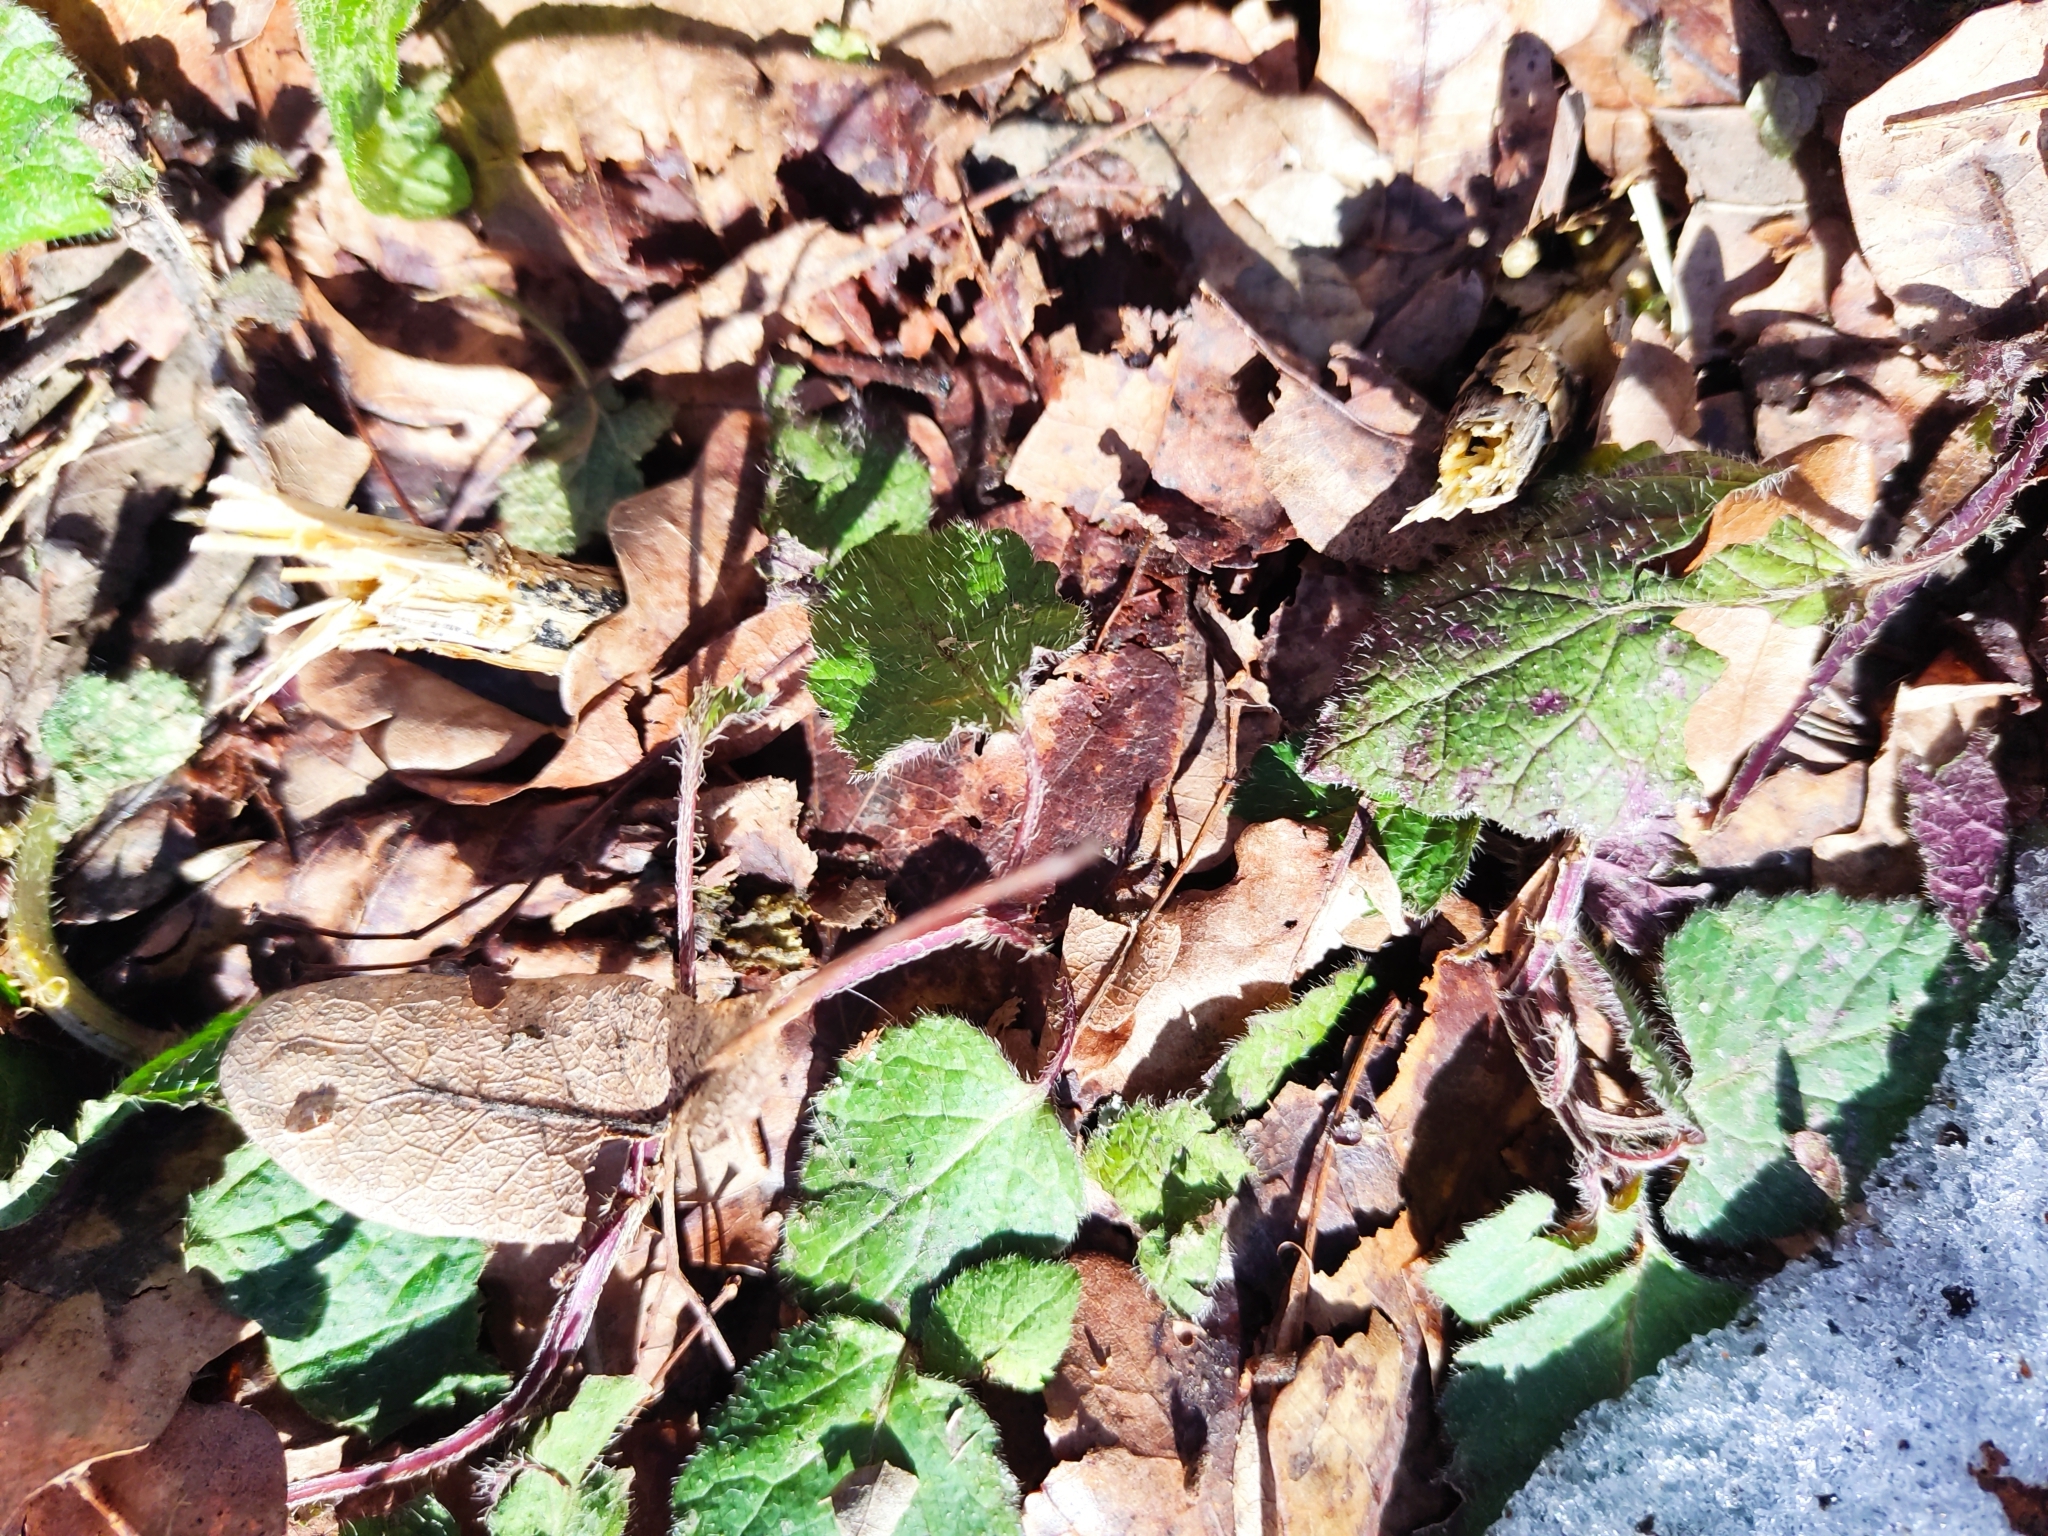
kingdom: Plantae
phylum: Tracheophyta
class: Magnoliopsida
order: Lamiales
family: Lamiaceae
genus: Lamium
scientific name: Lamium galeobdolon
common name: Yellow archangel
